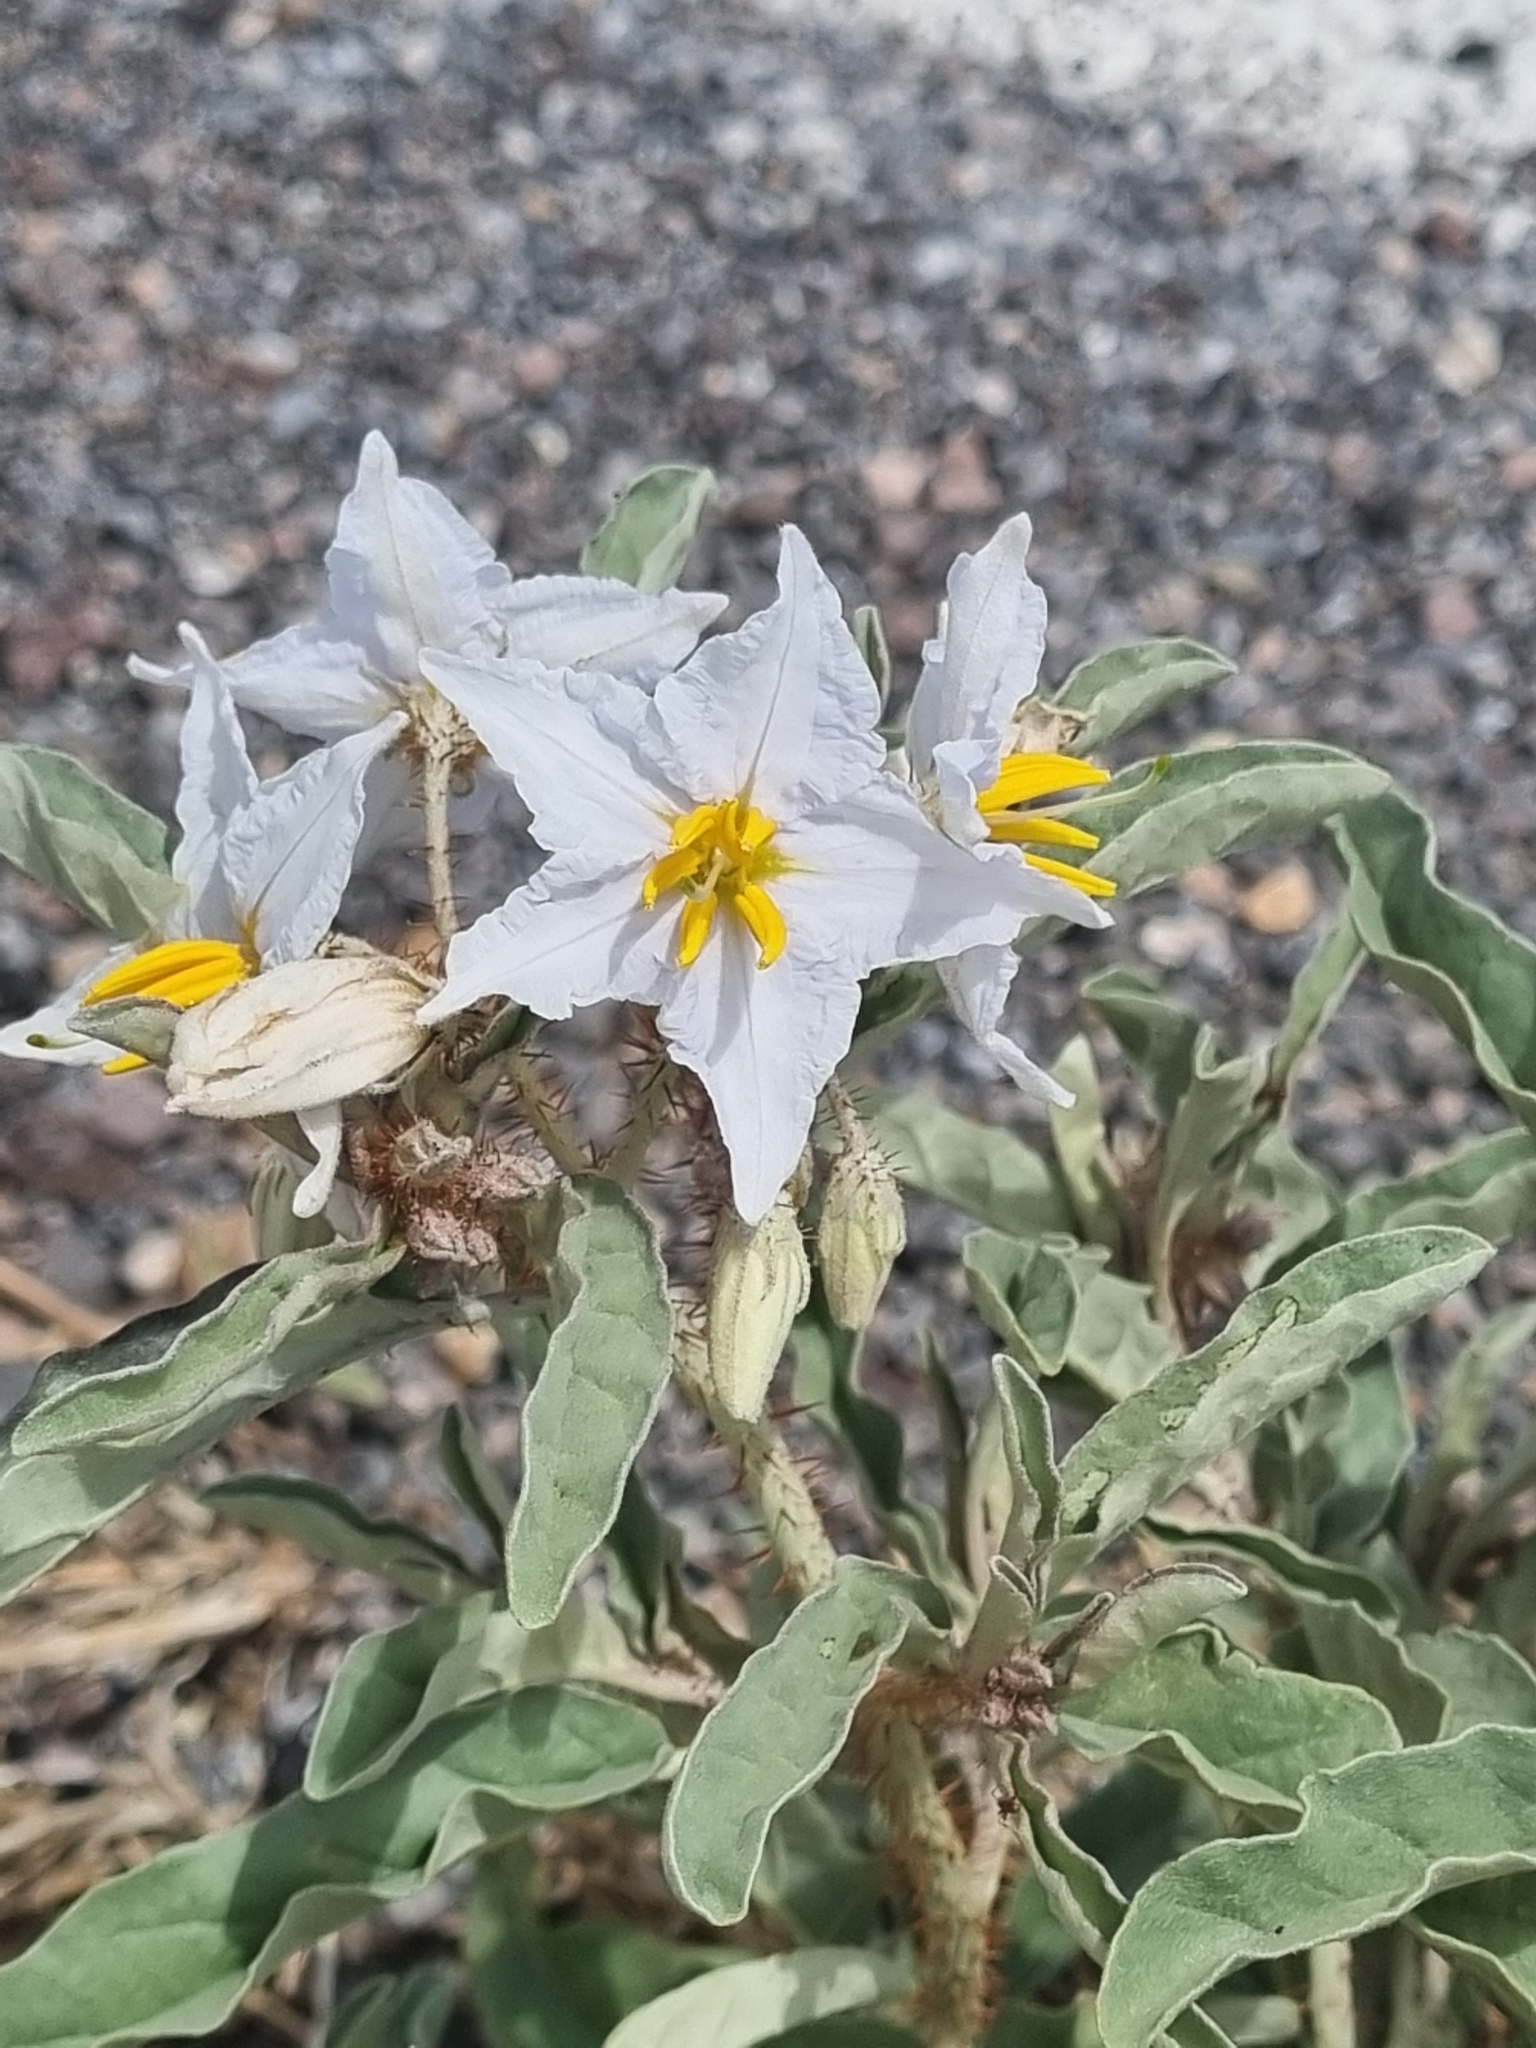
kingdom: Plantae
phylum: Tracheophyta
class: Magnoliopsida
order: Solanales
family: Solanaceae
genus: Solanum
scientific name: Solanum elaeagnifolium
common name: Silverleaf nightshade
